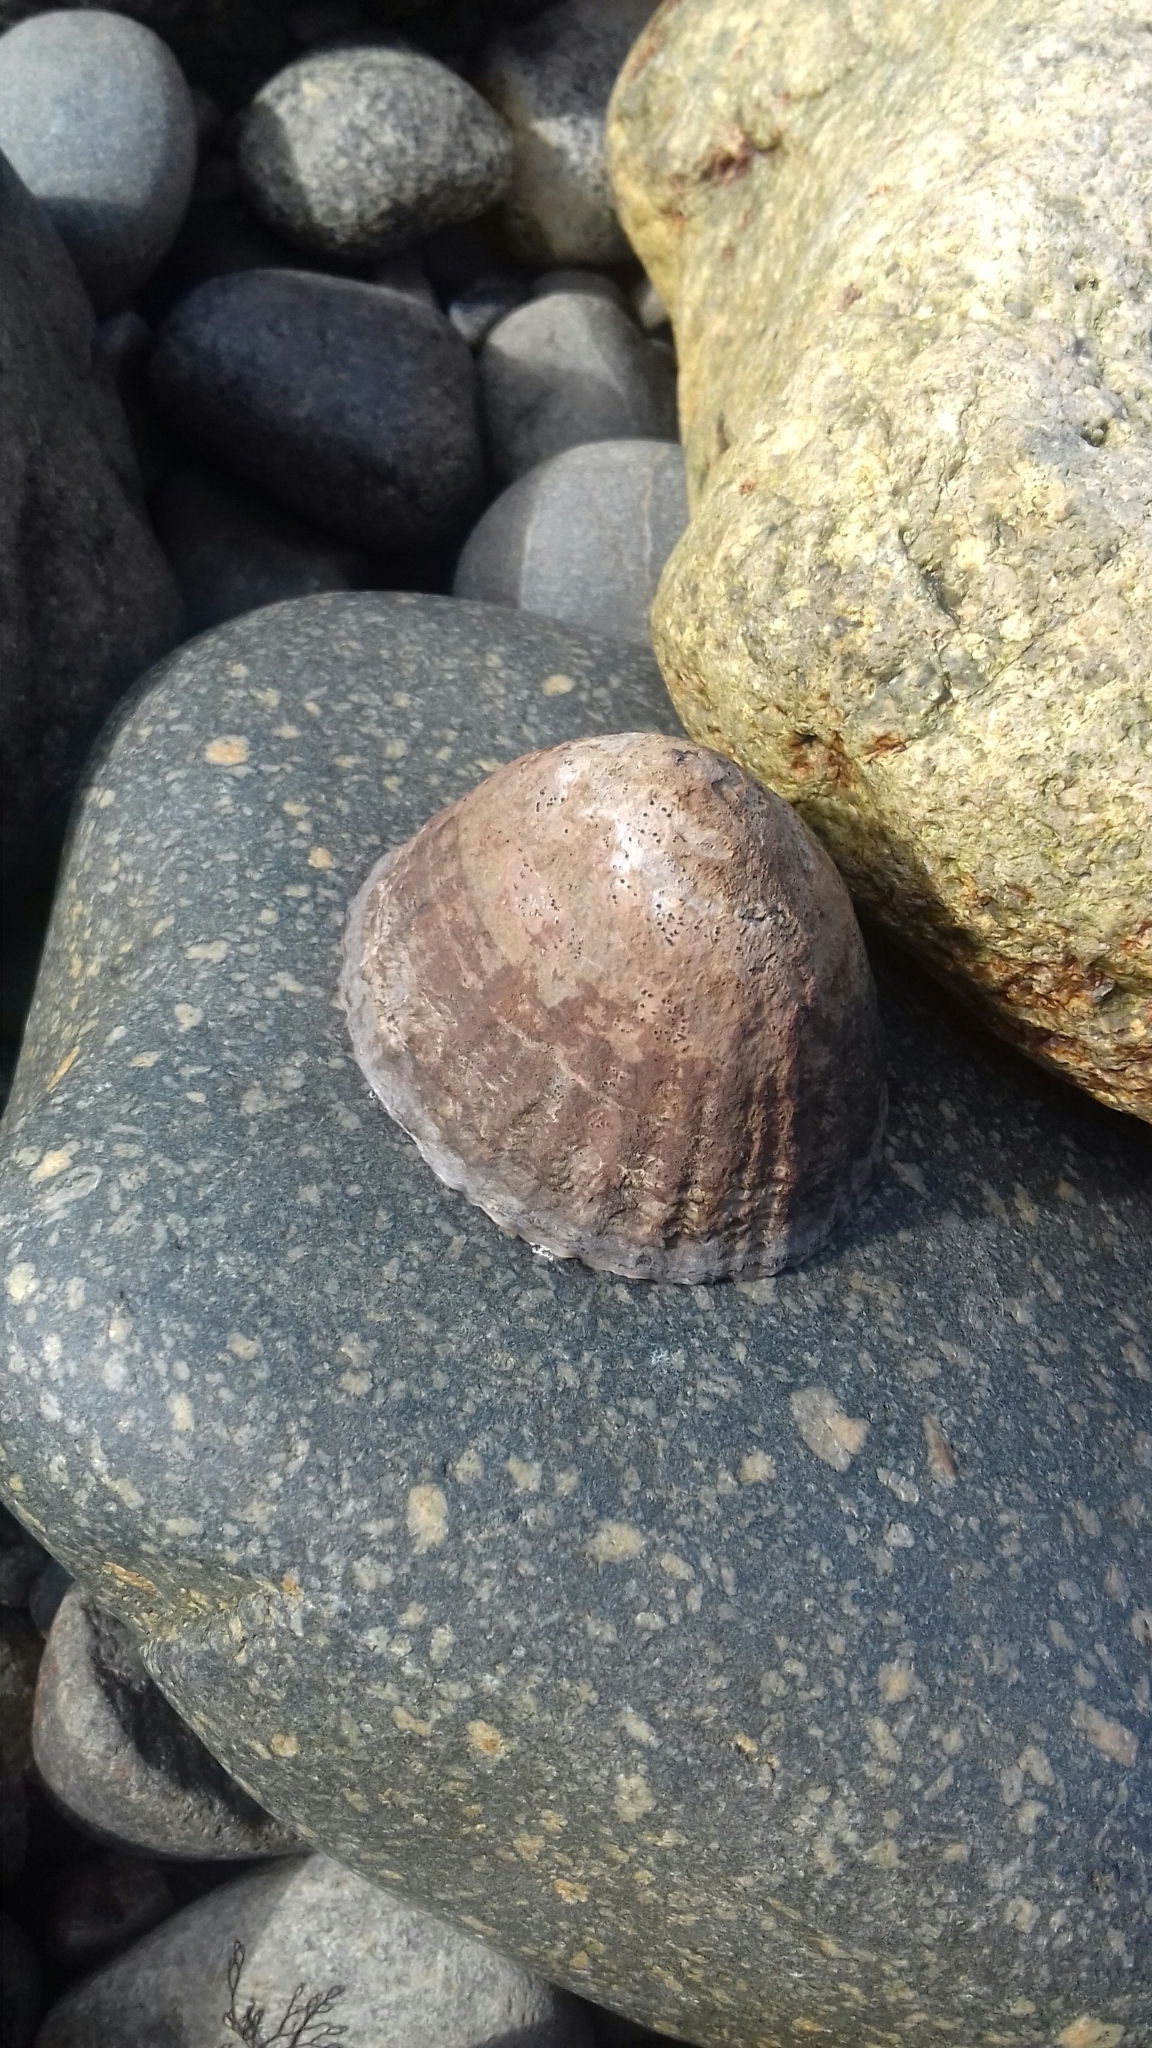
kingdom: Animalia
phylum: Mollusca
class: Gastropoda
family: Nacellidae
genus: Nacella
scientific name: Nacella magellanica
